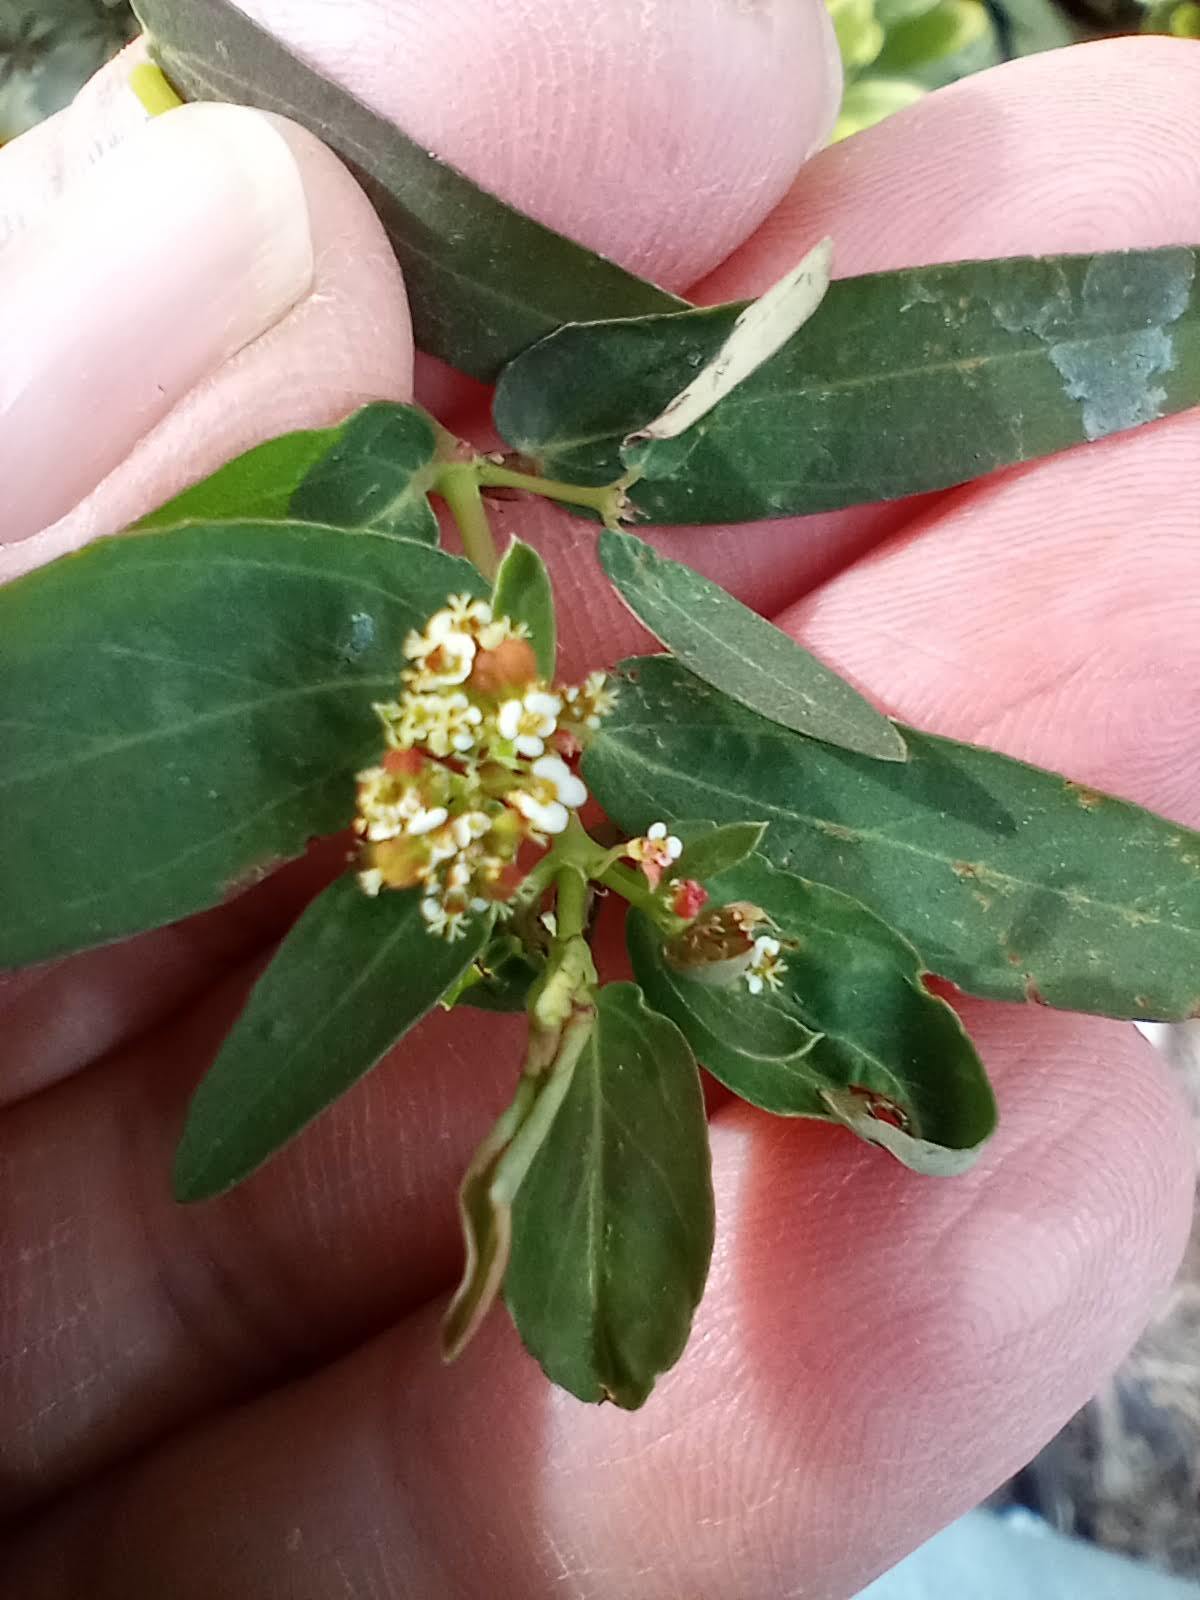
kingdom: Plantae
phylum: Tracheophyta
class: Magnoliopsida
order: Malpighiales
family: Euphorbiaceae
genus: Euphorbia
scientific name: Euphorbia hypericifolia
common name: Graceful sandmat
